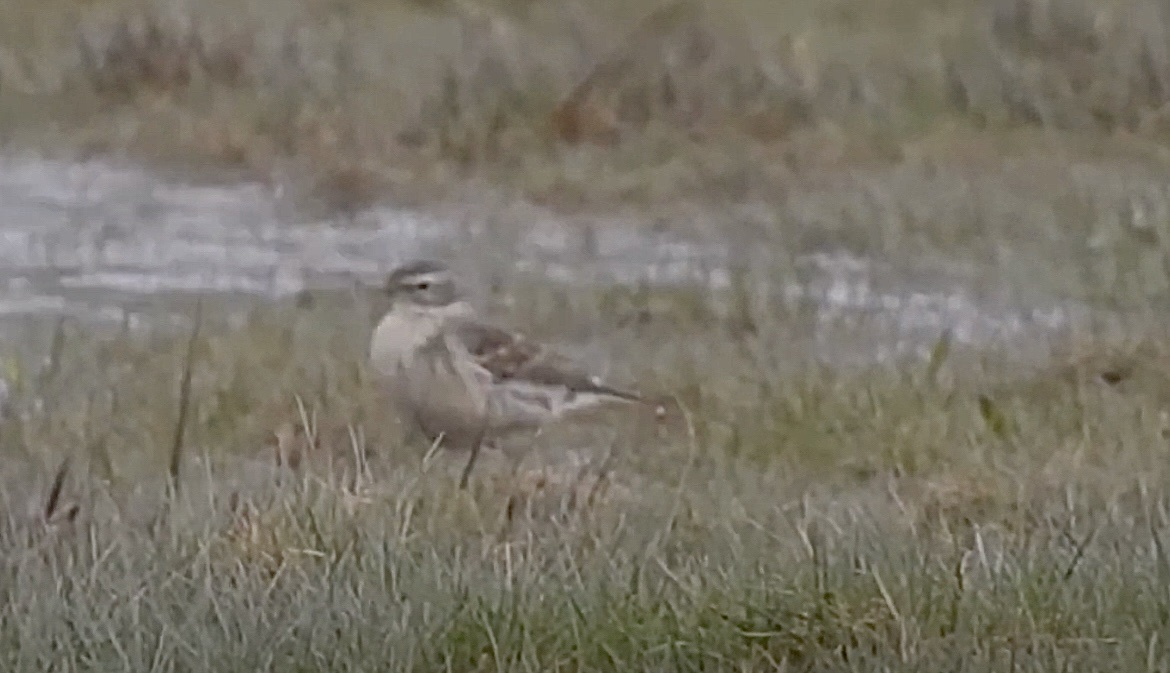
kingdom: Animalia
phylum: Chordata
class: Aves
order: Passeriformes
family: Motacillidae
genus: Anthus
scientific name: Anthus spinoletta
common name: Water pipit
